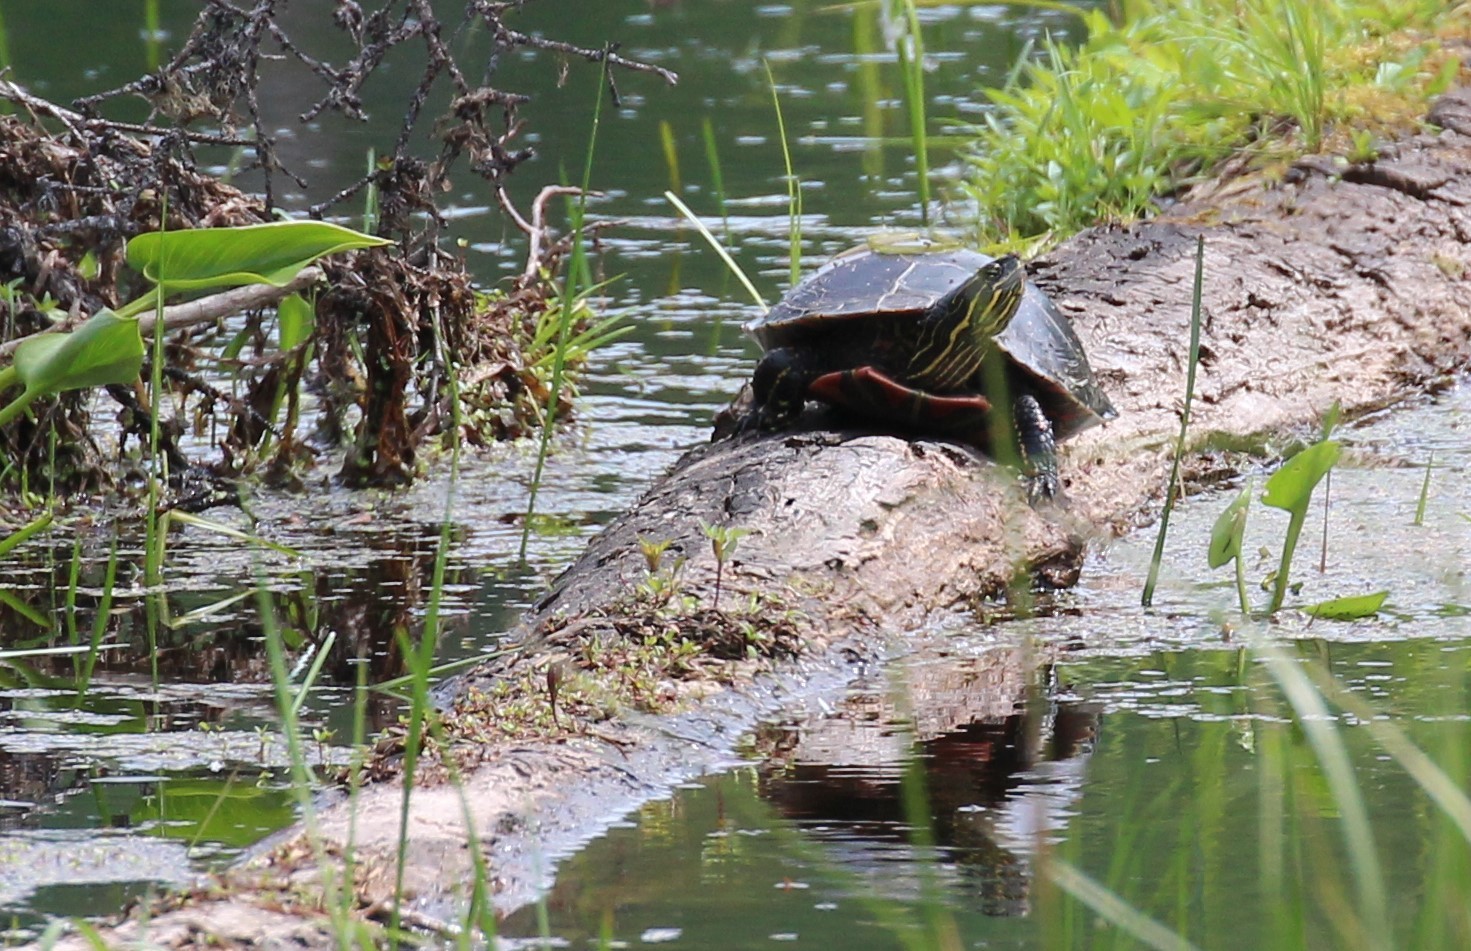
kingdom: Animalia
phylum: Chordata
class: Testudines
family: Emydidae
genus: Chrysemys
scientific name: Chrysemys picta
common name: Painted turtle
